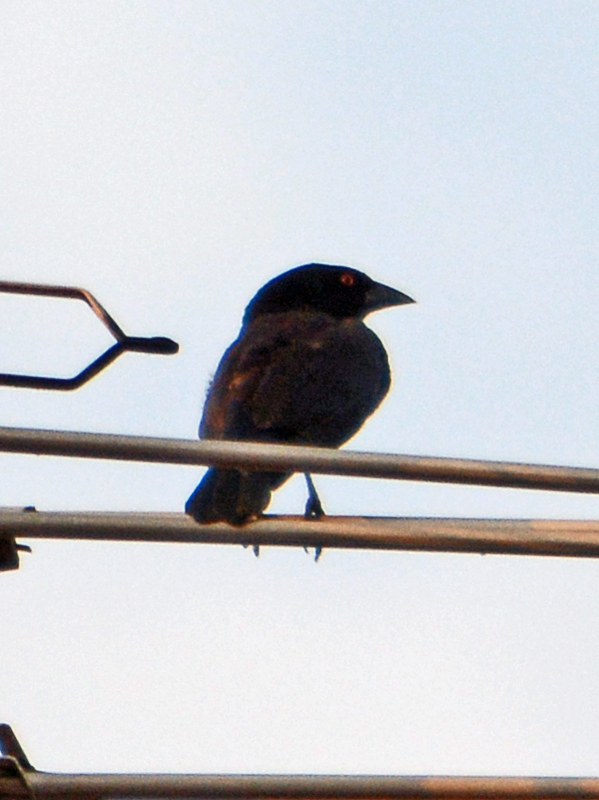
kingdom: Animalia
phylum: Chordata
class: Aves
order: Passeriformes
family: Icteridae
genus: Molothrus
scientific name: Molothrus aeneus
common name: Bronzed cowbird
